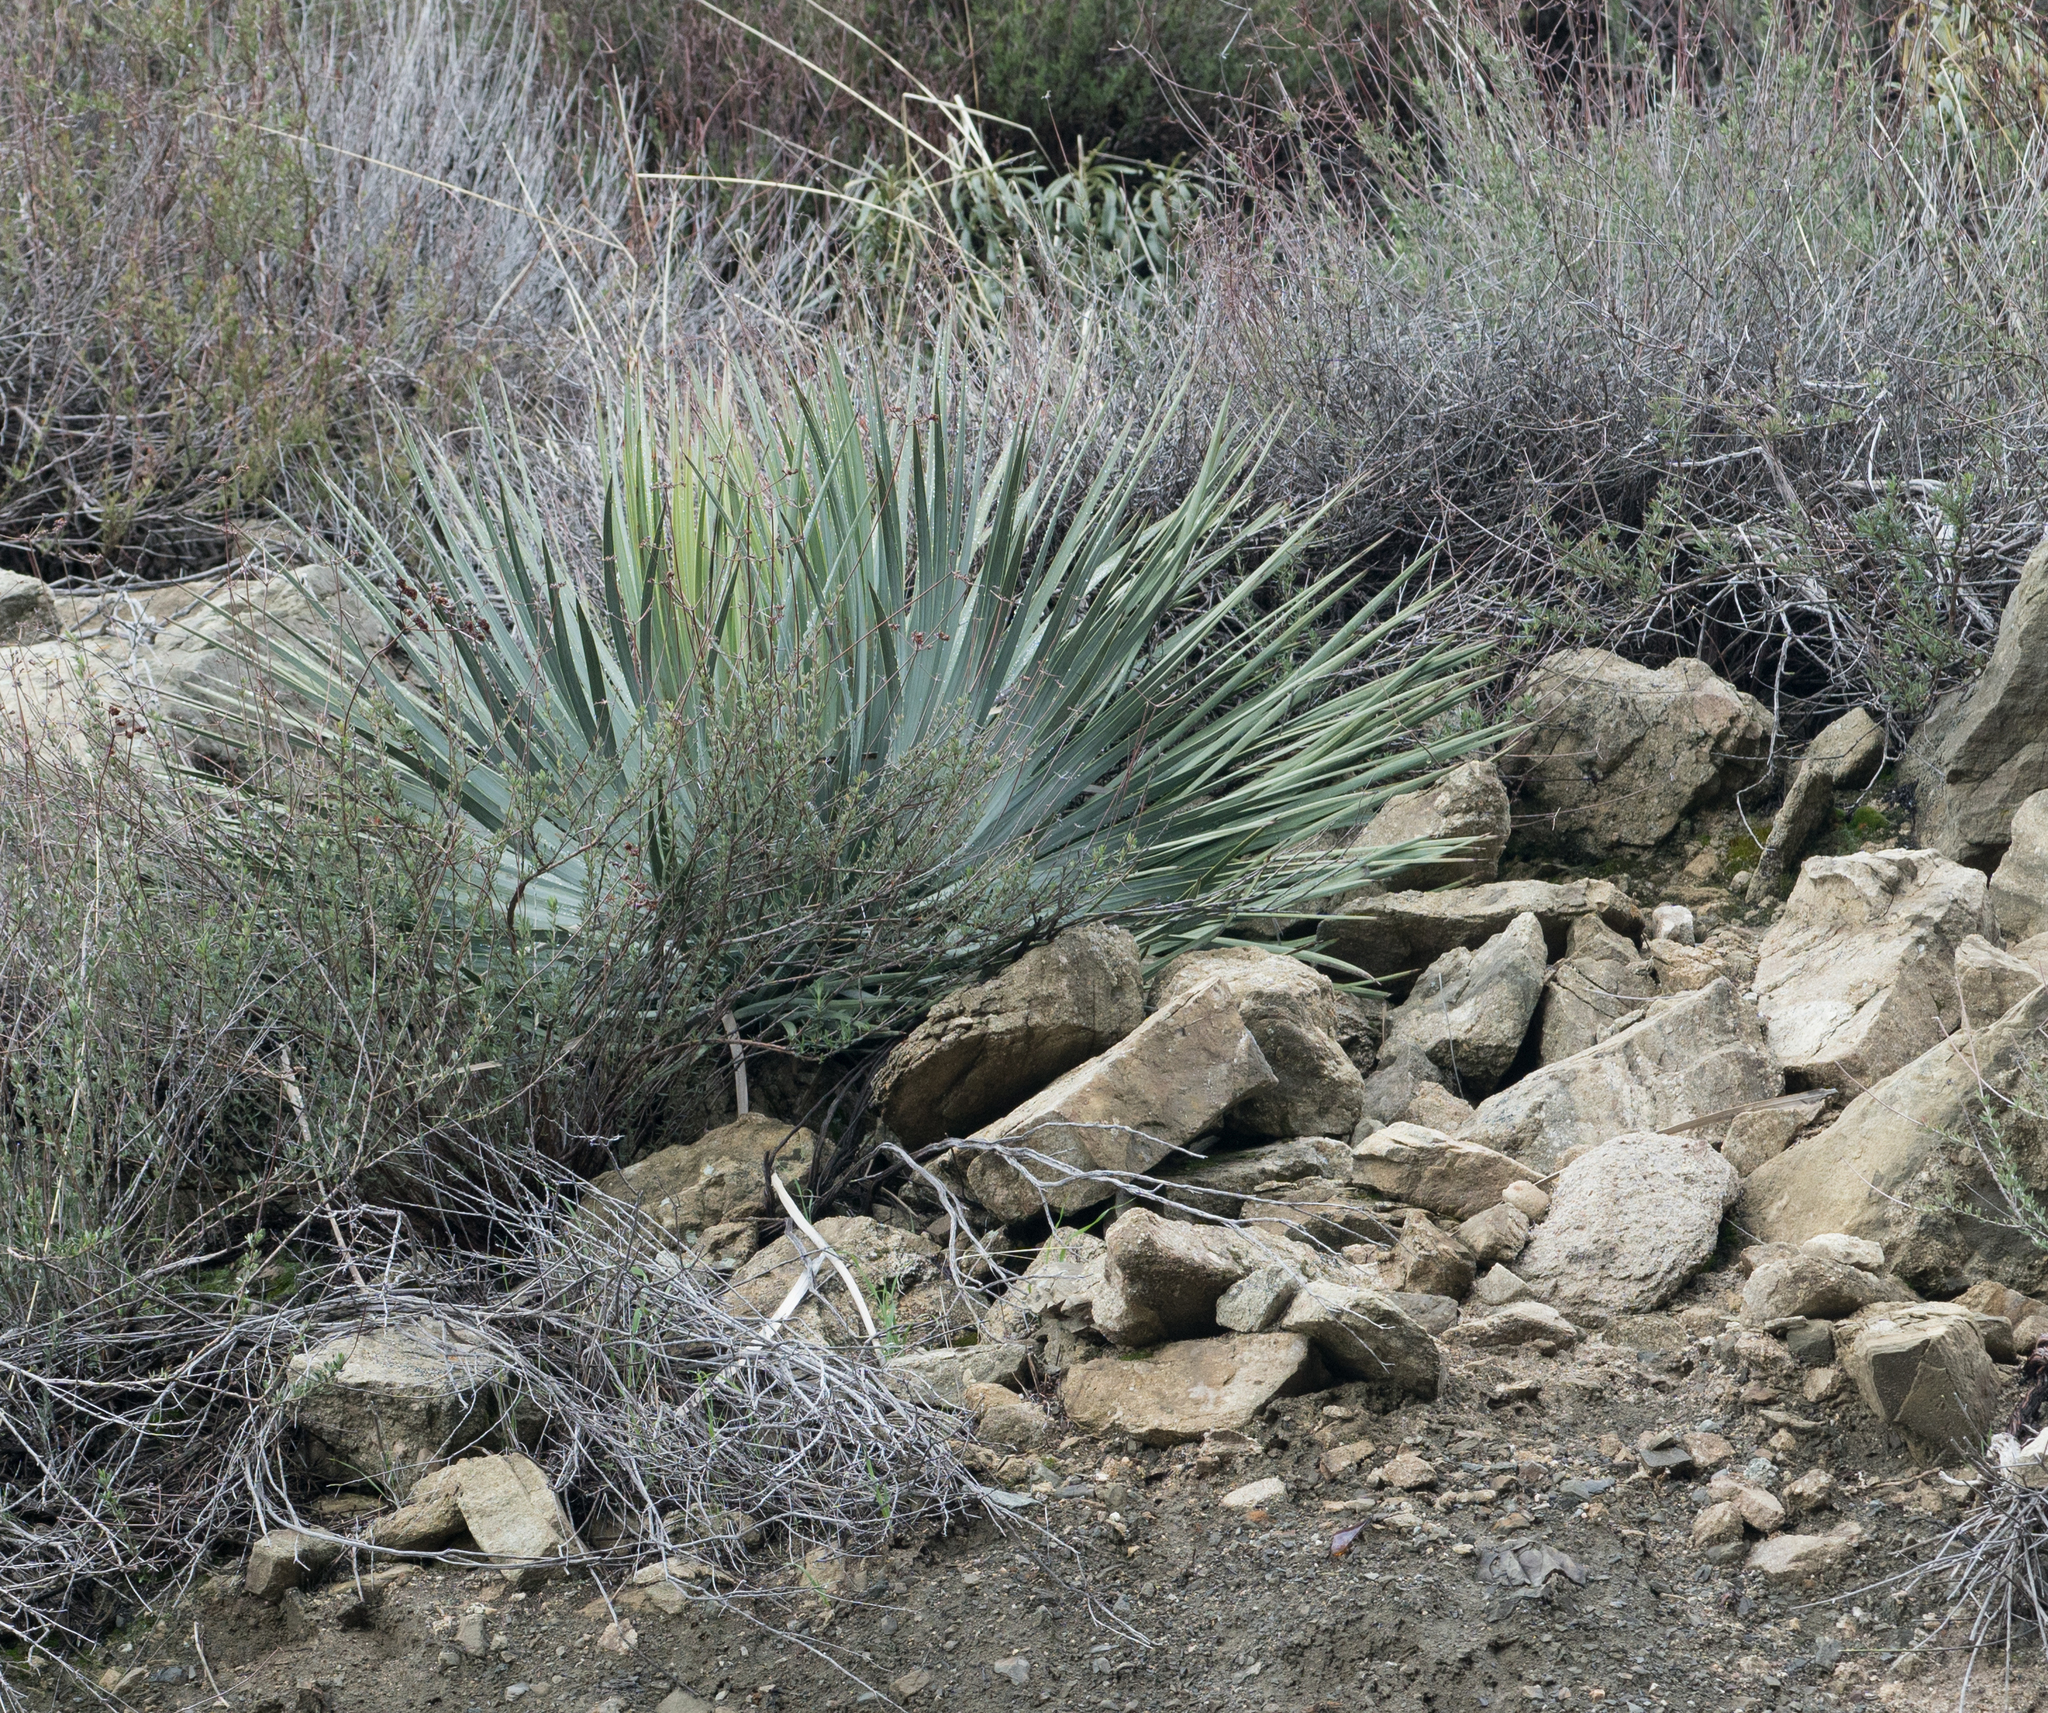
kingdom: Plantae
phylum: Tracheophyta
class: Liliopsida
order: Asparagales
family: Asparagaceae
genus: Hesperoyucca
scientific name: Hesperoyucca whipplei
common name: Our lord's-candle
